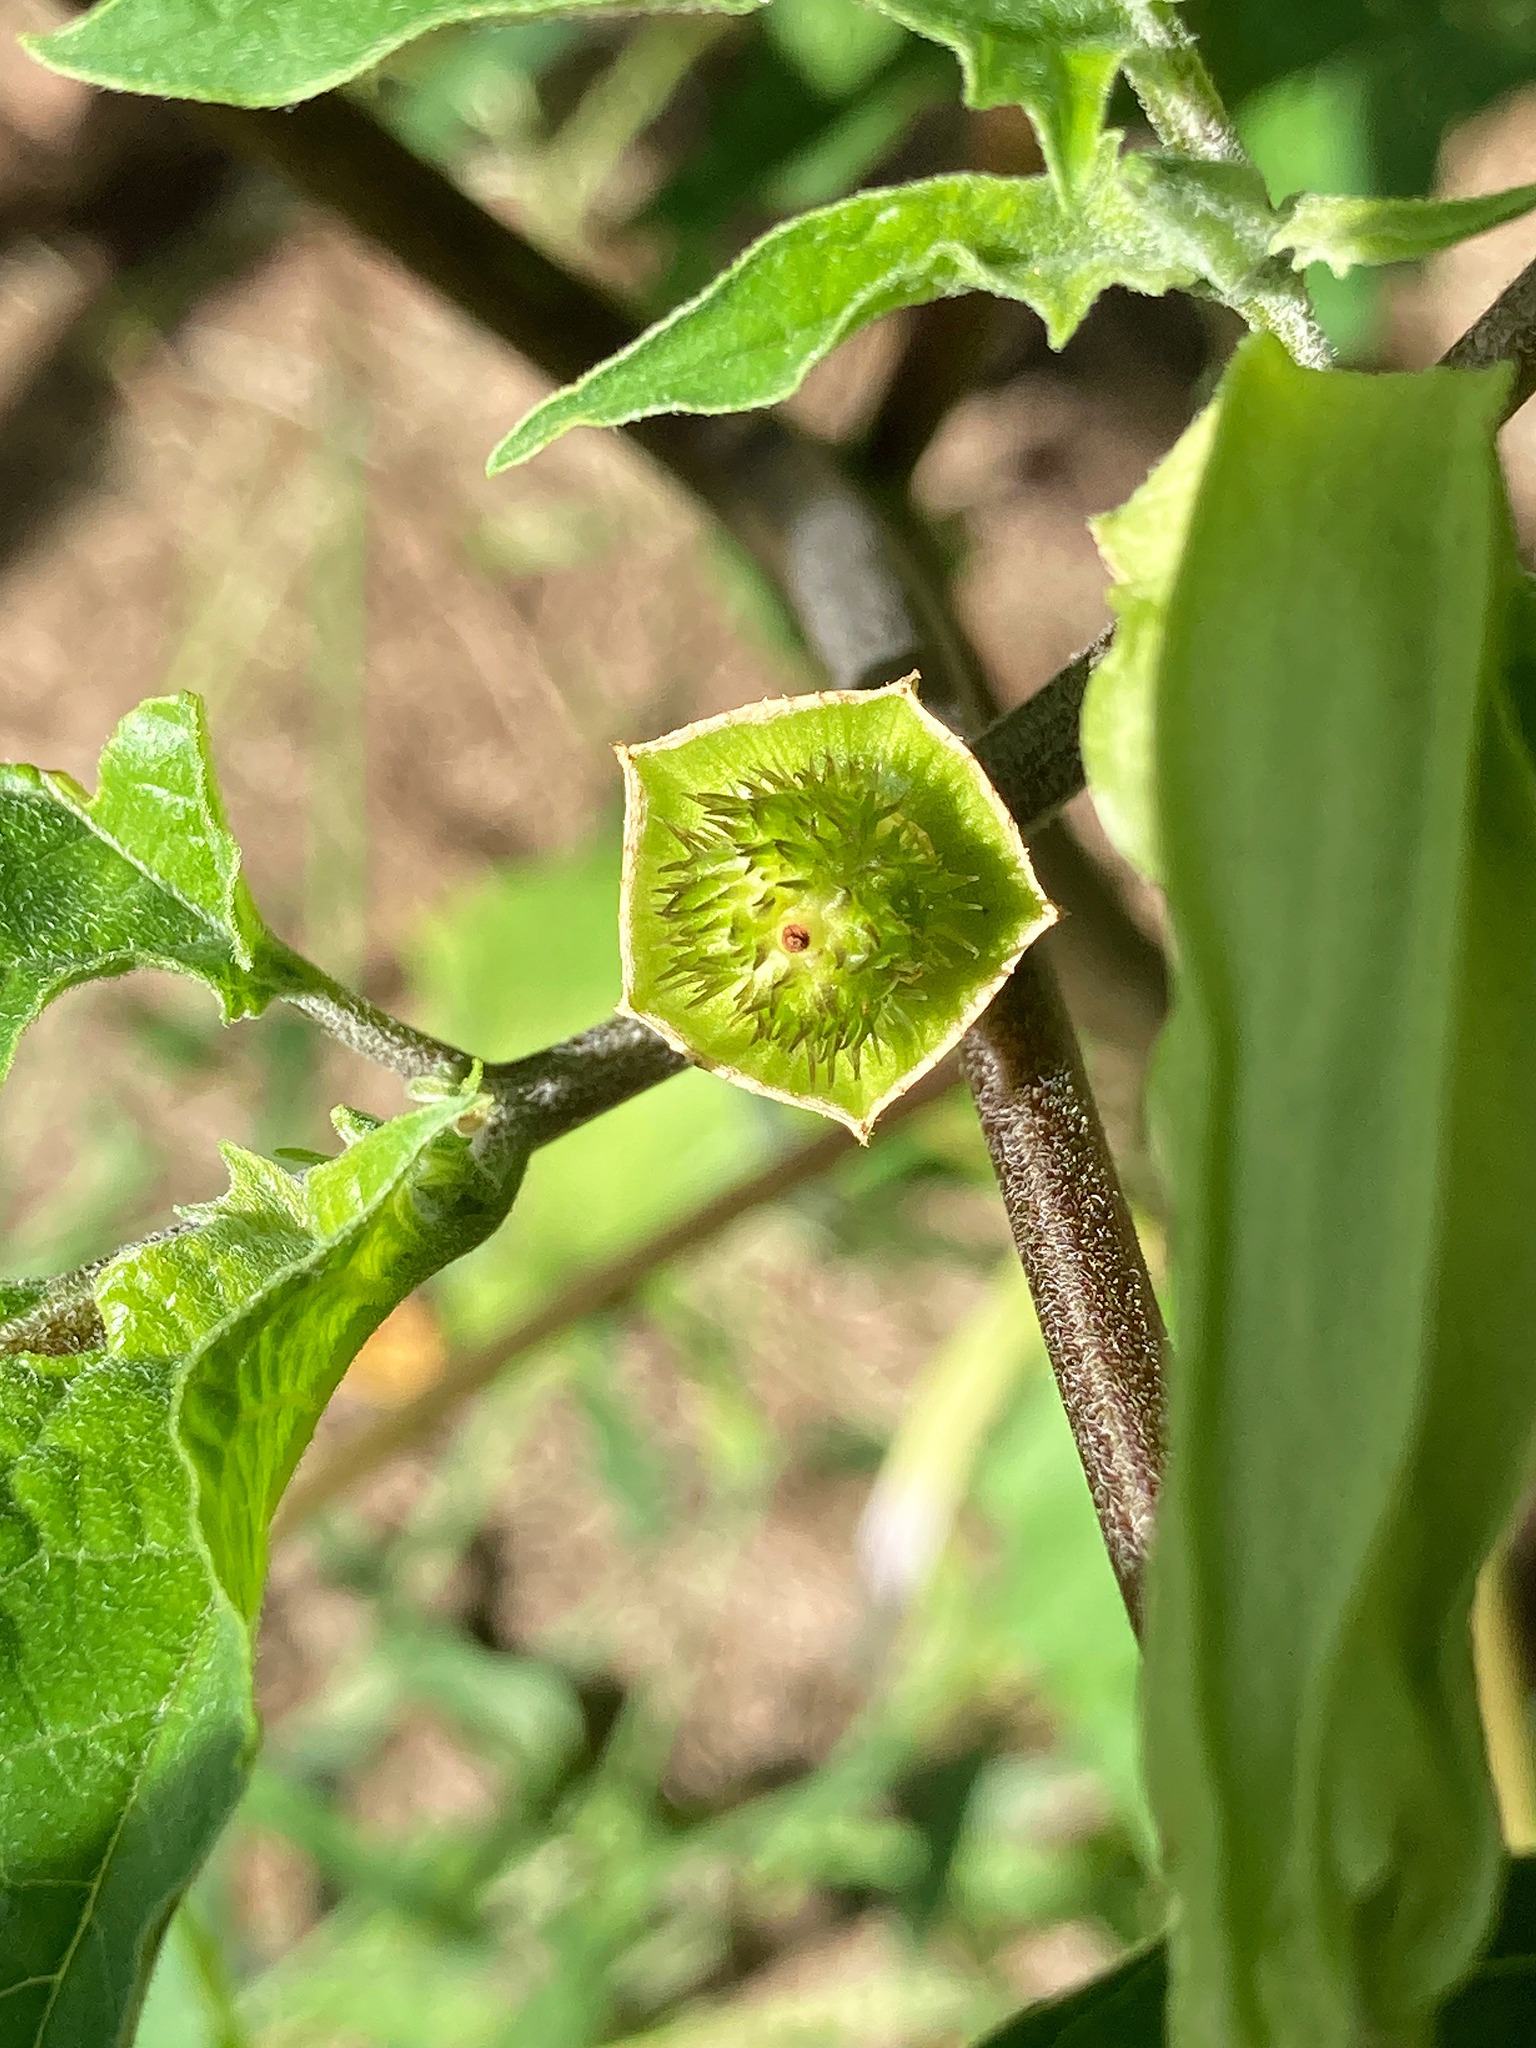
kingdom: Plantae
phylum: Tracheophyta
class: Magnoliopsida
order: Solanales
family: Solanaceae
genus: Datura
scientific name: Datura stramonium
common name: Thorn-apple
